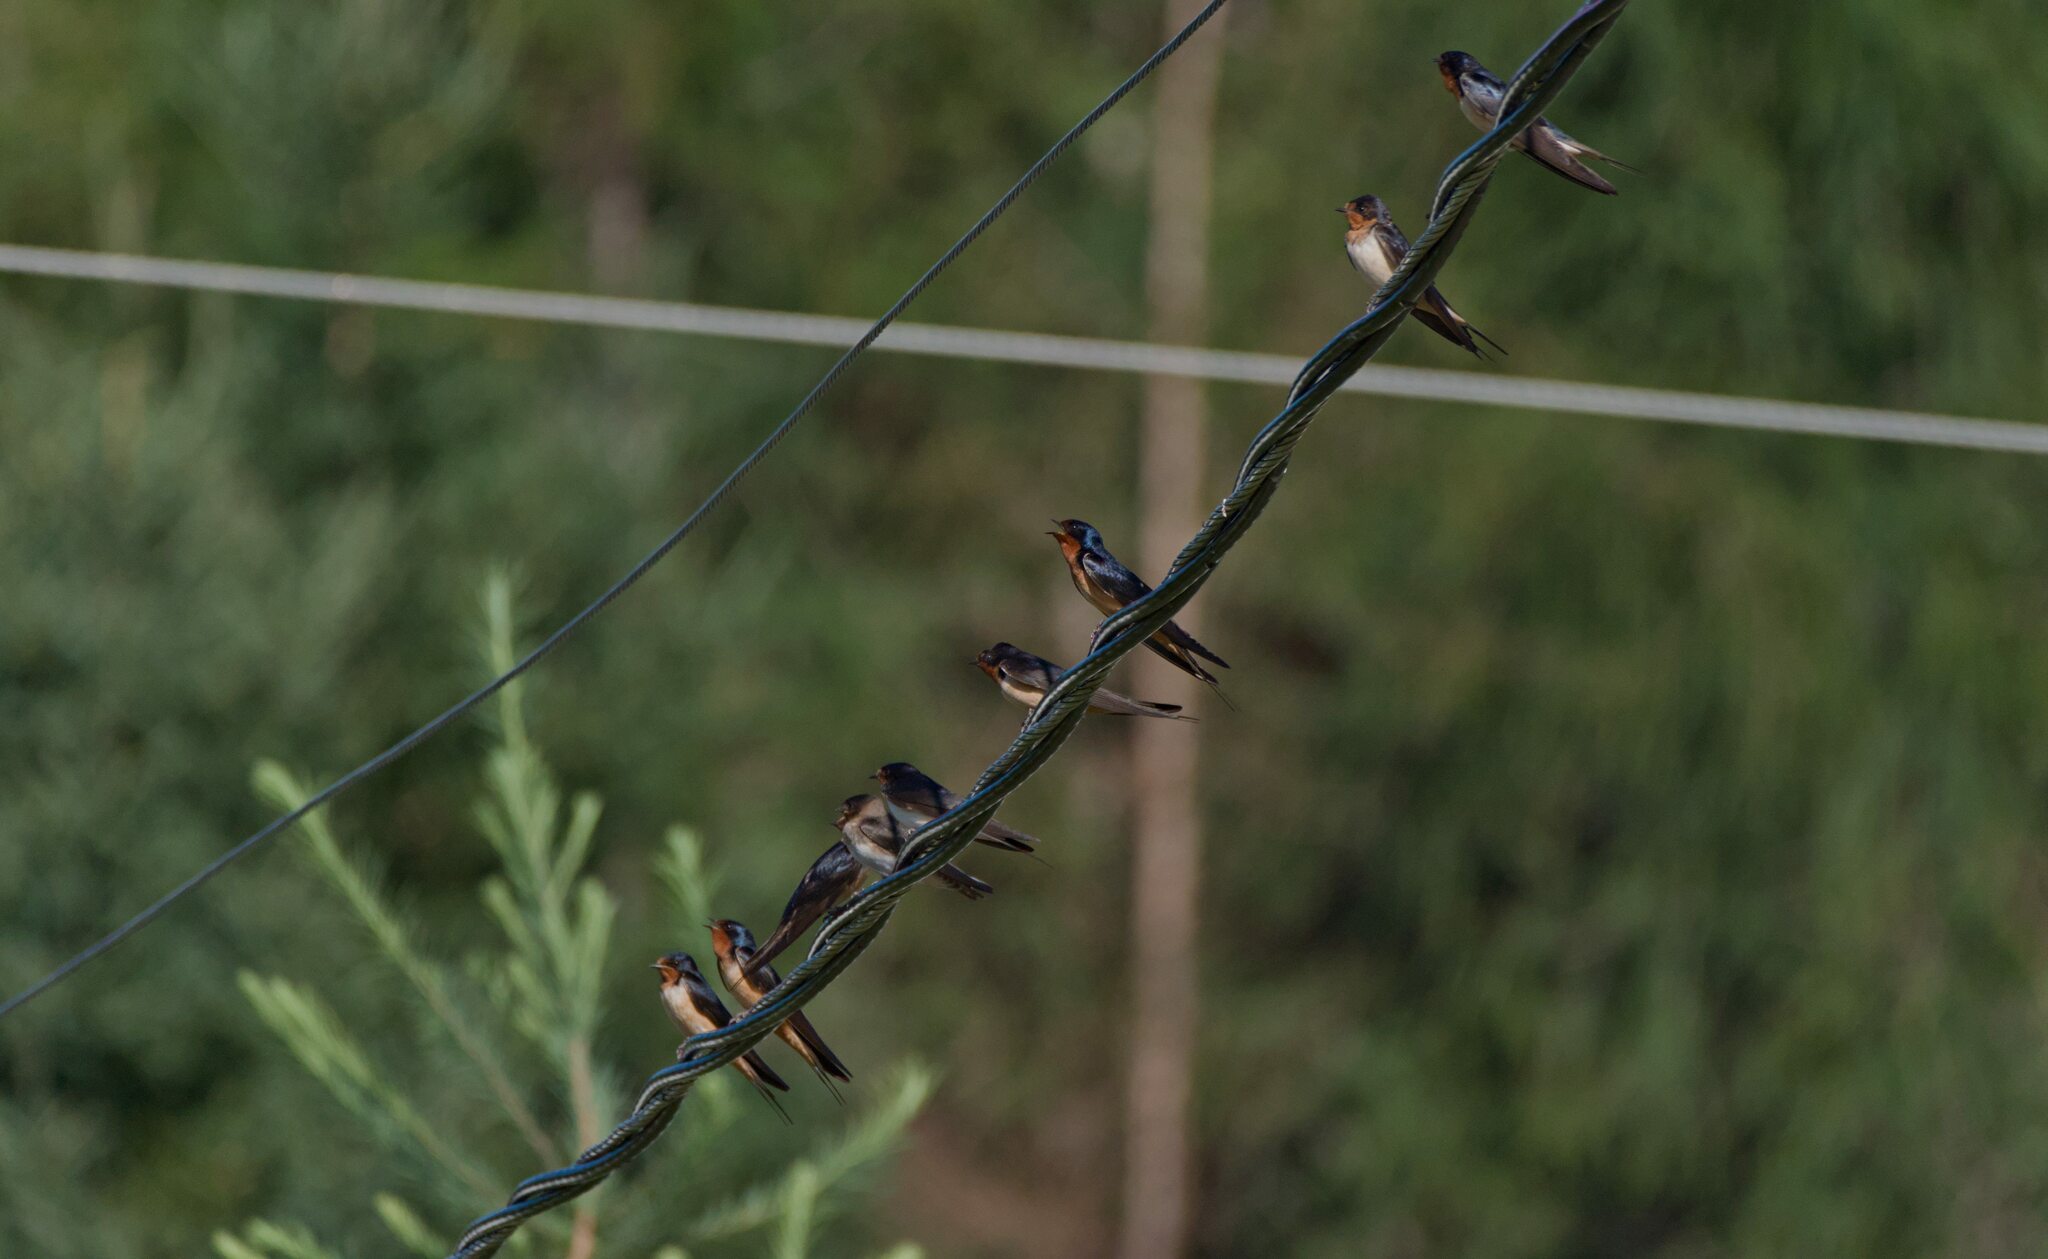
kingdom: Animalia
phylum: Chordata
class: Aves
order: Passeriformes
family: Hirundinidae
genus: Hirundo
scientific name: Hirundo rustica
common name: Barn swallow
